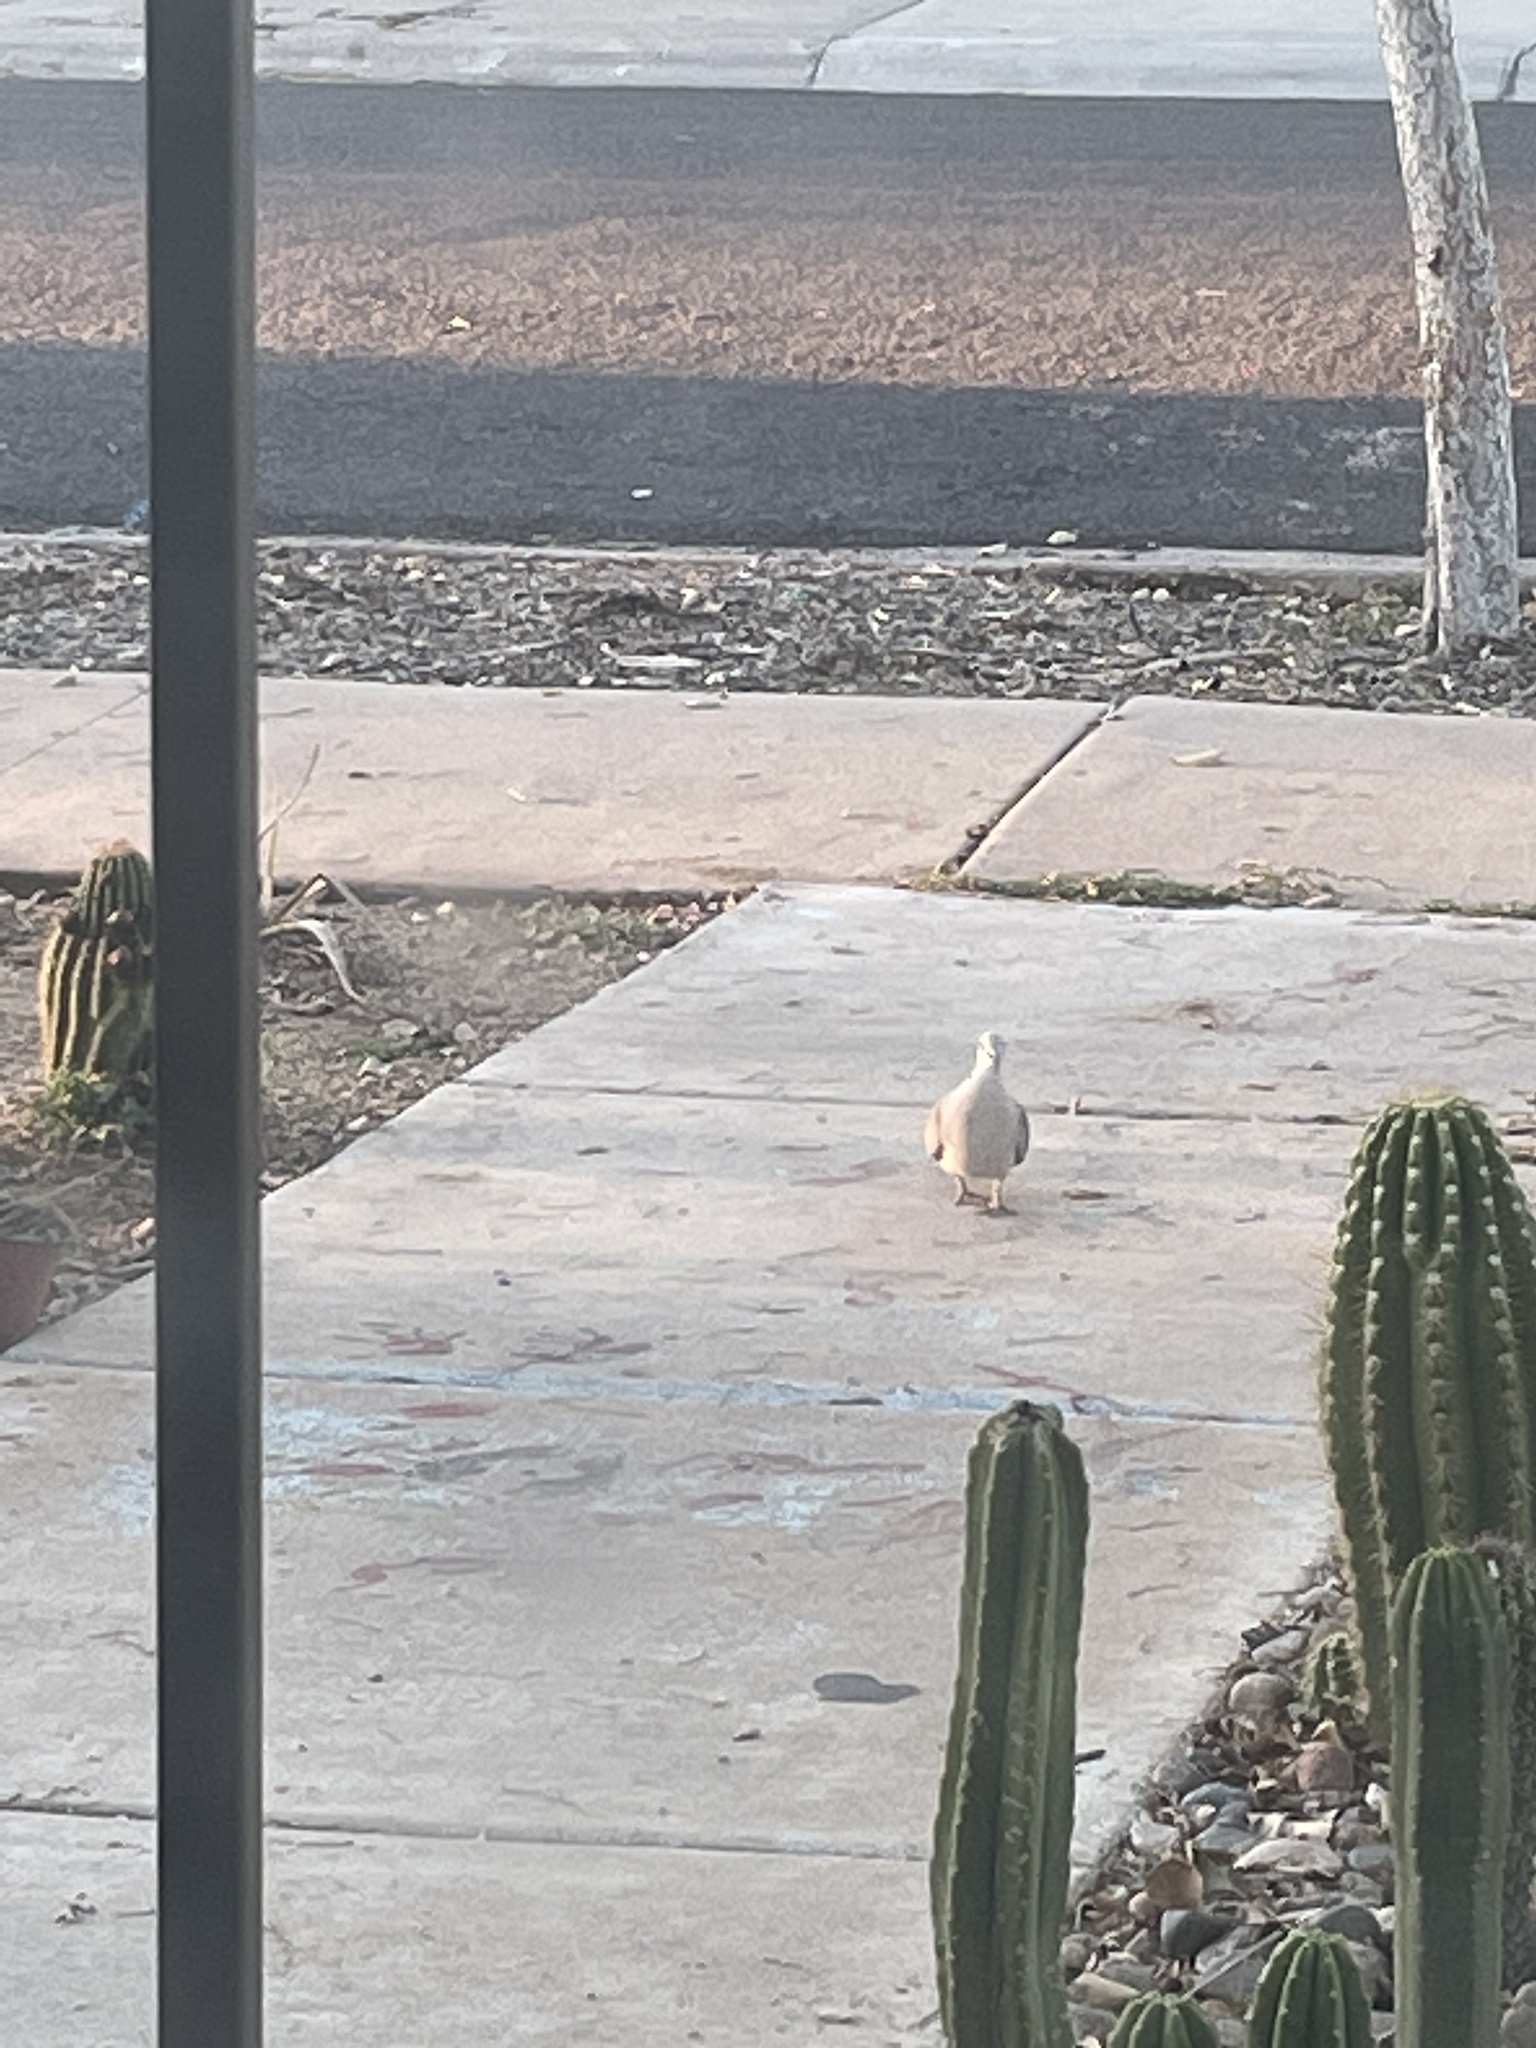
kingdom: Animalia
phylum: Chordata
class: Aves
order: Columbiformes
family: Columbidae
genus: Streptopelia
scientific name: Streptopelia decaocto
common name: Eurasian collared dove
